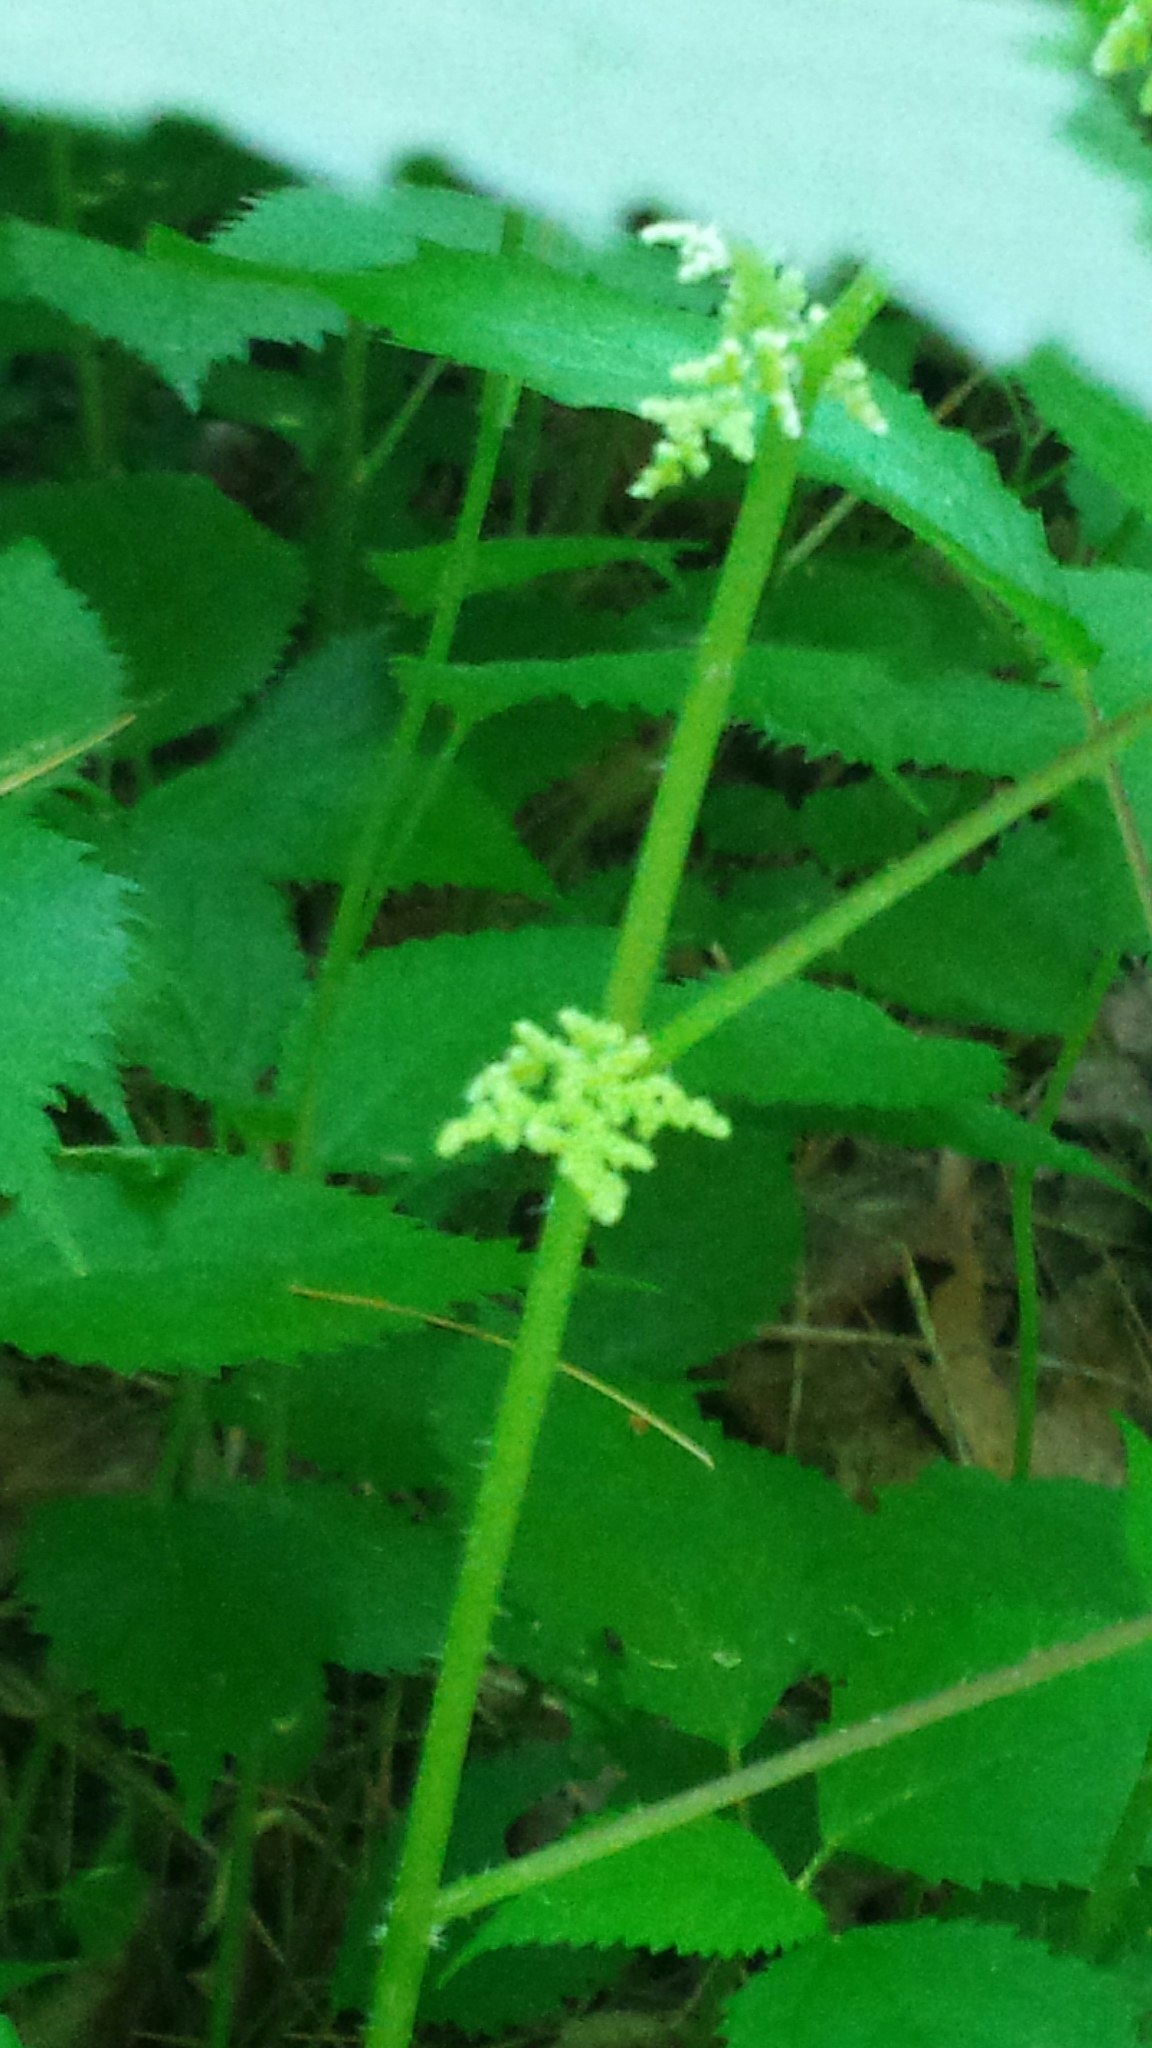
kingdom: Plantae
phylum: Tracheophyta
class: Magnoliopsida
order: Rosales
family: Urticaceae
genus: Laportea
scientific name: Laportea canadensis
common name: Canada nettle
